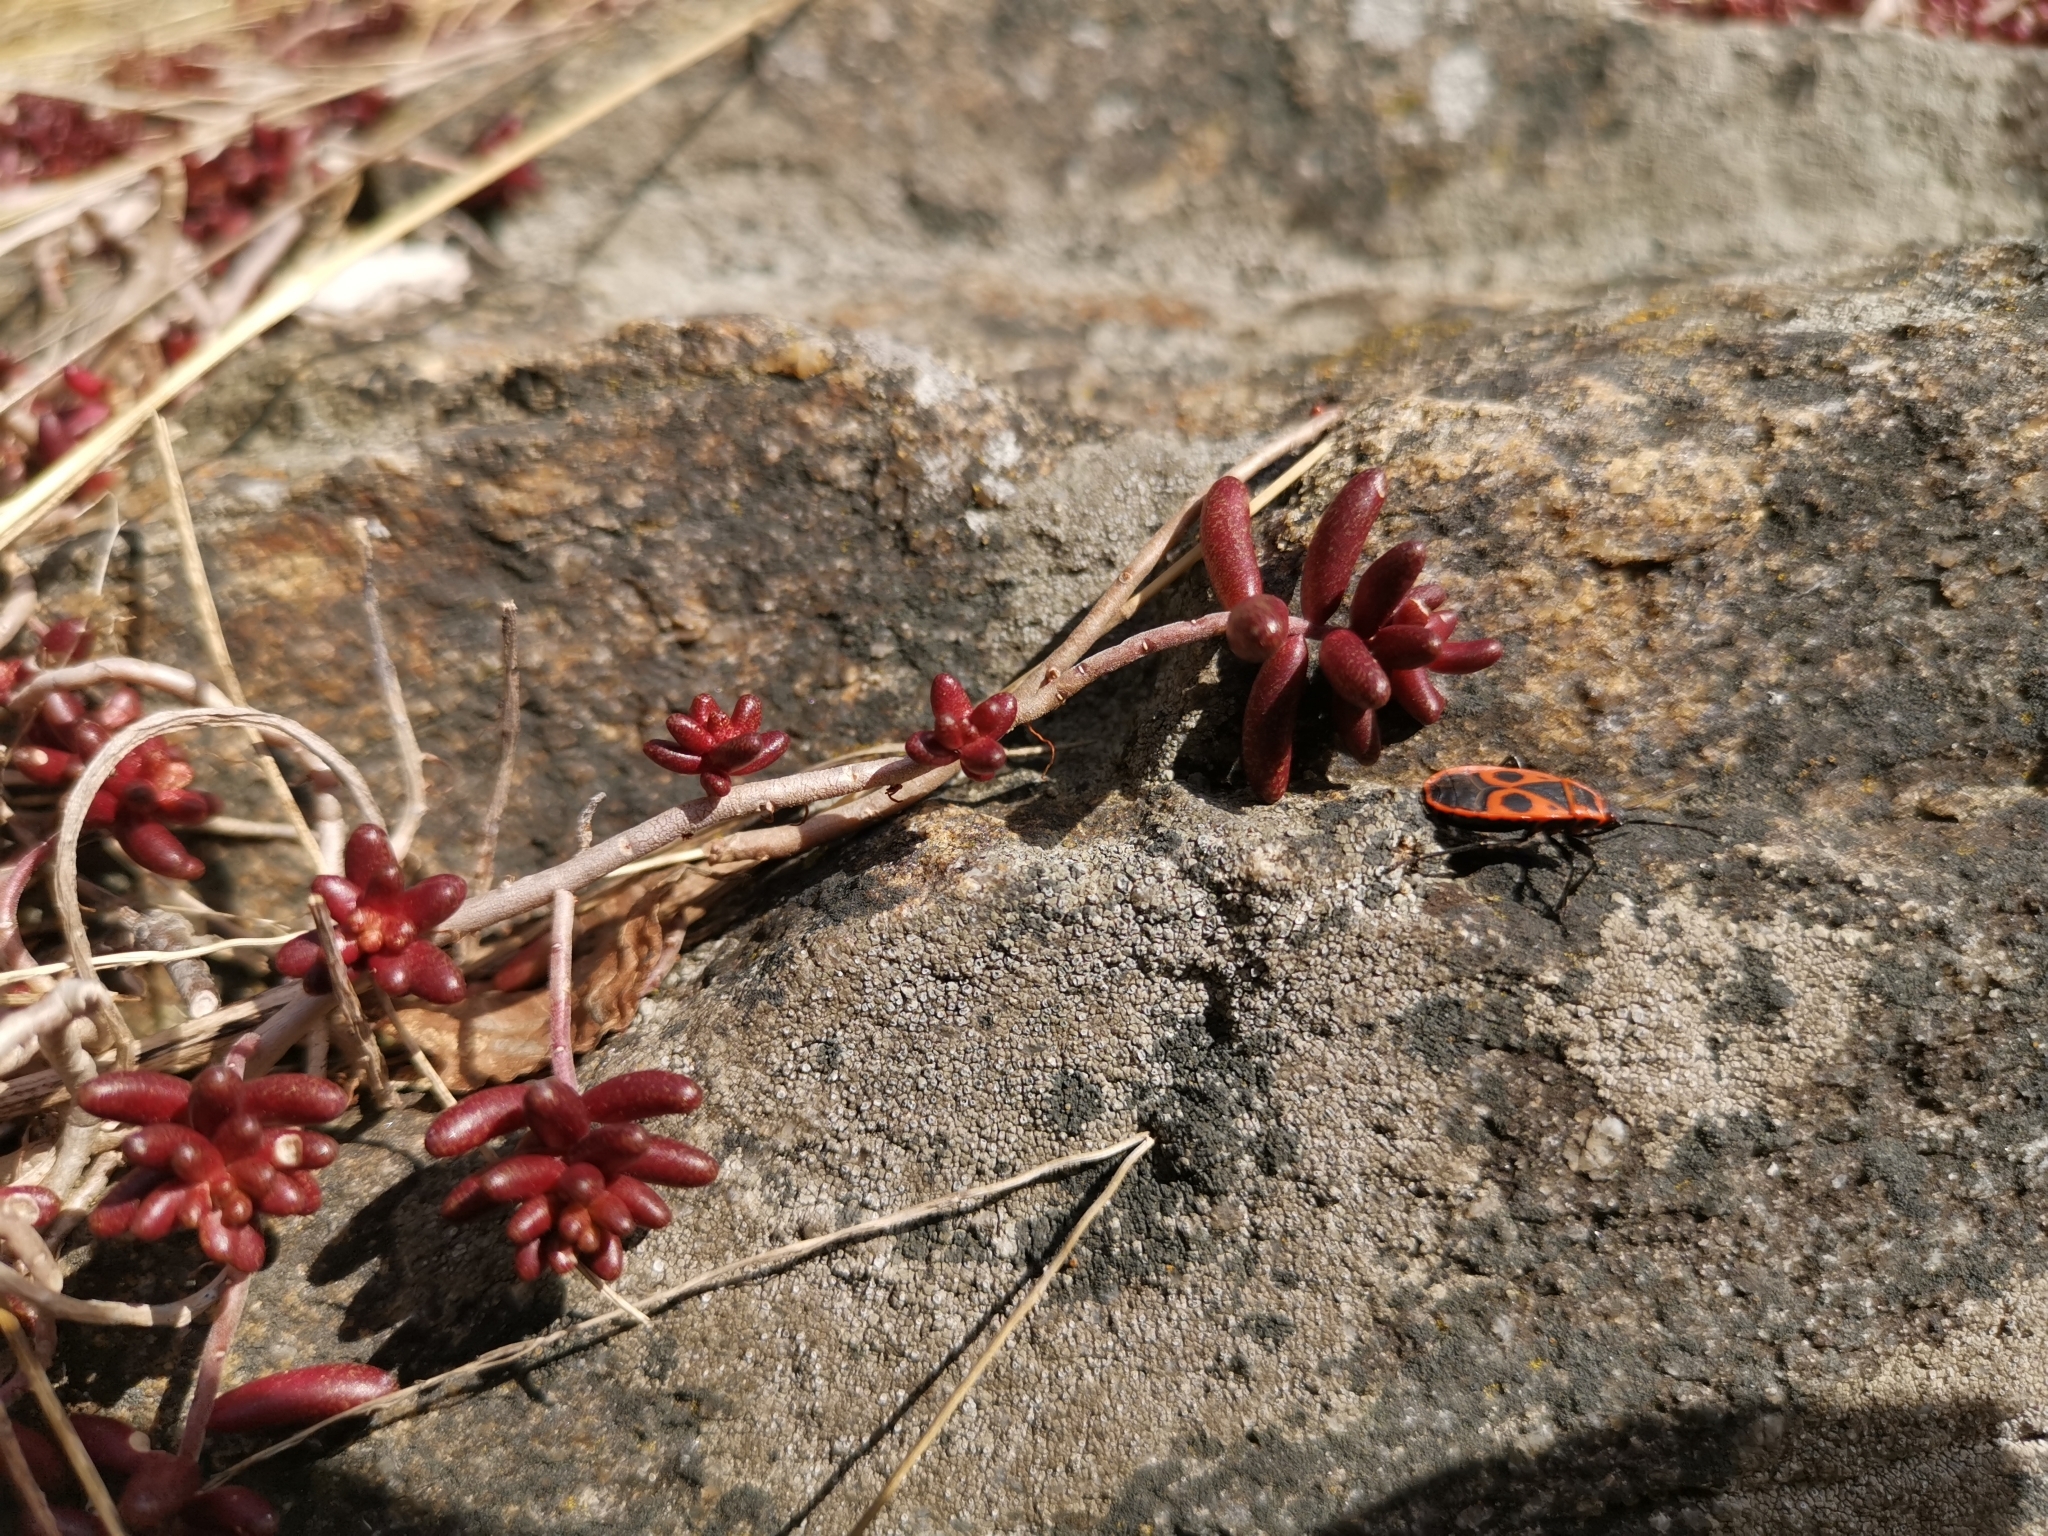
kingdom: Plantae
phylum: Tracheophyta
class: Magnoliopsida
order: Saxifragales
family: Crassulaceae
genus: Sedum
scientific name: Sedum album
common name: White stonecrop
